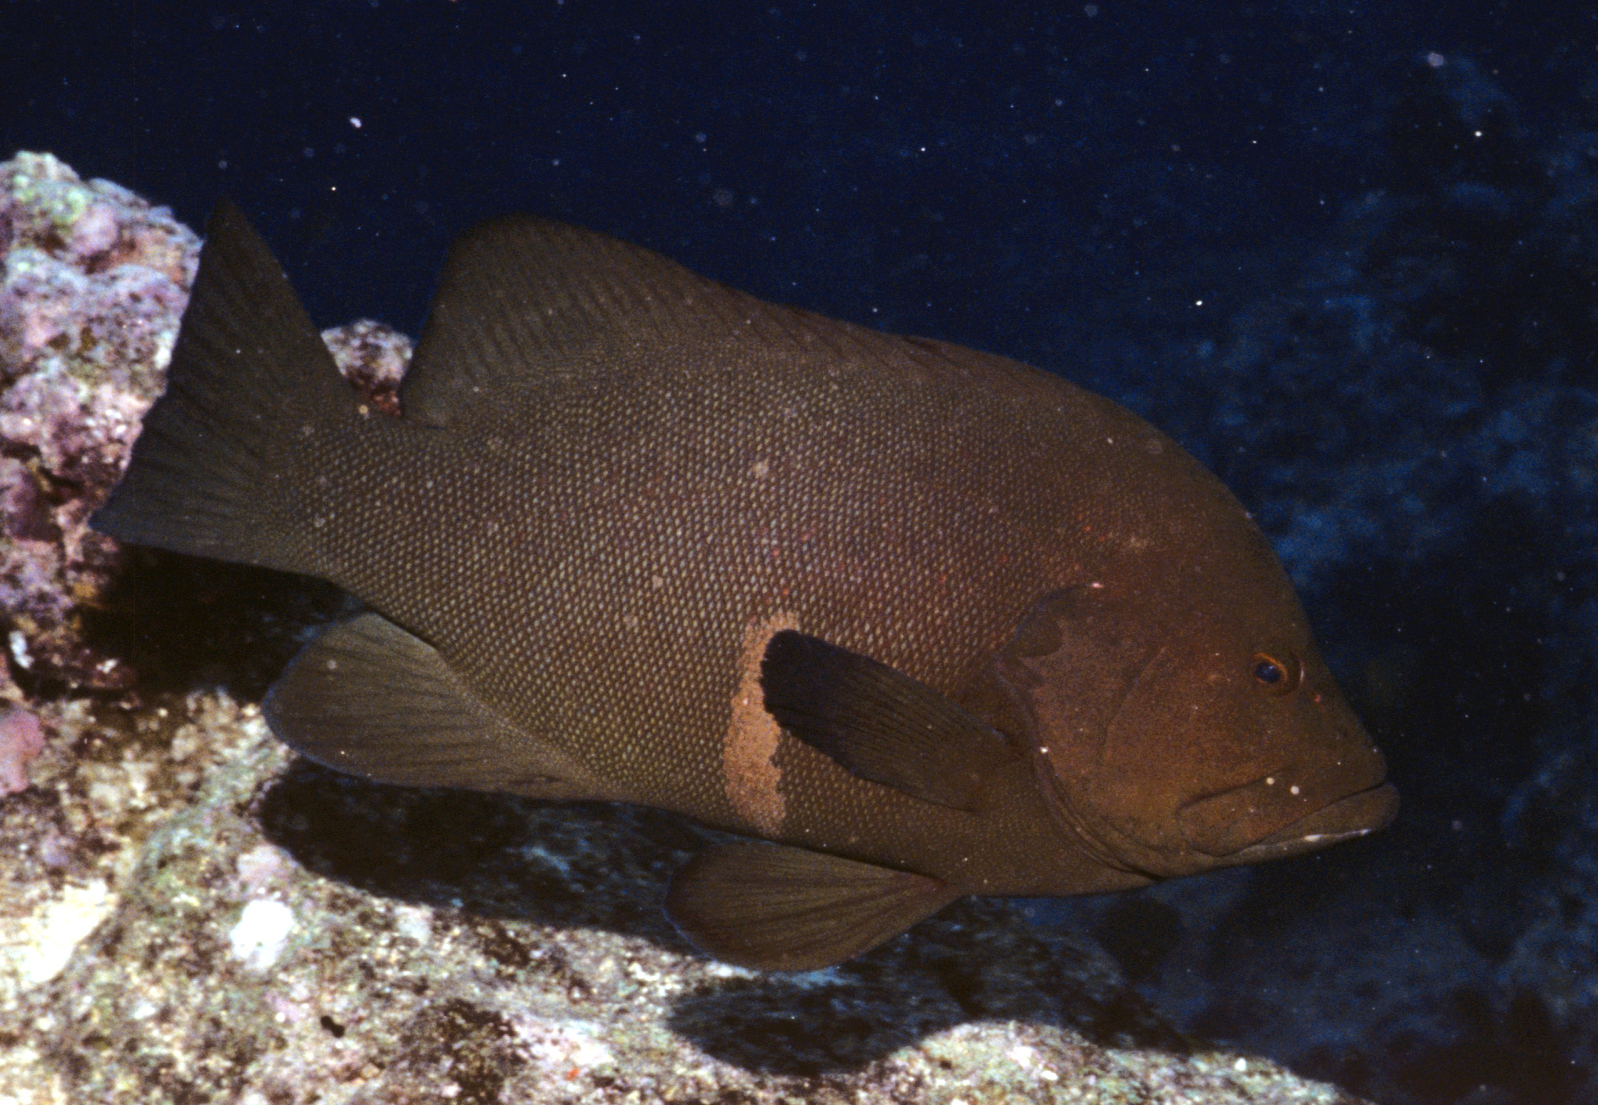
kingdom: Animalia
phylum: Chordata
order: Perciformes
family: Serranidae
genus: Aethaloperca
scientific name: Aethaloperca rogaa
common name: Redmouth grouper
